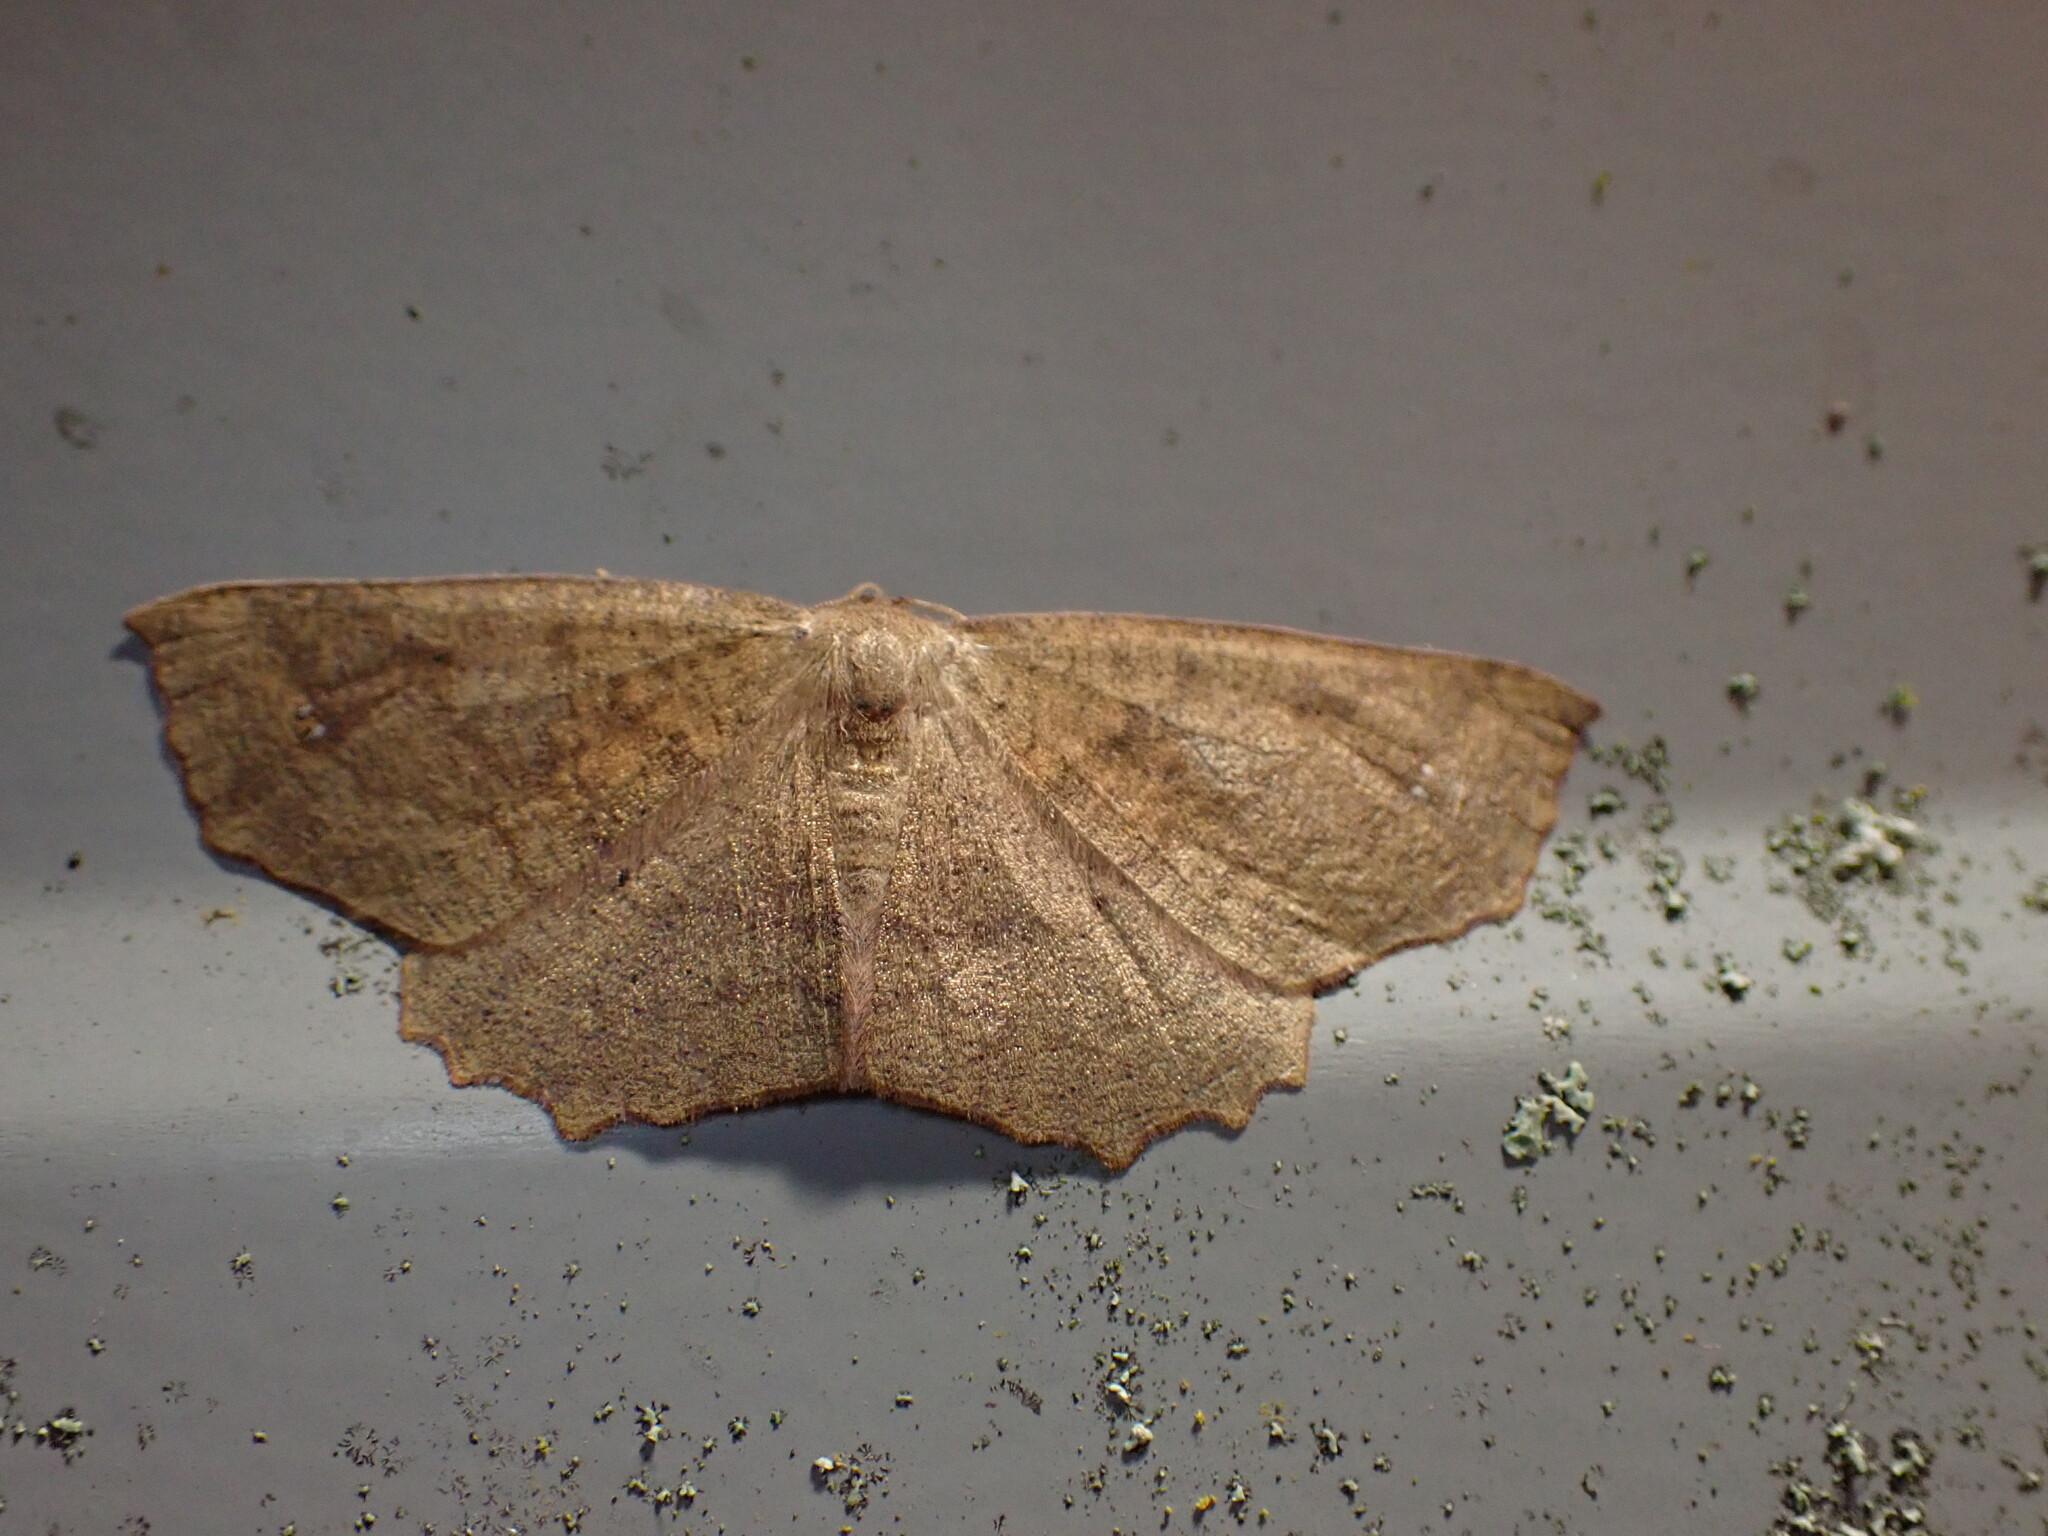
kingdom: Animalia
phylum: Arthropoda
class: Insecta
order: Lepidoptera
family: Geometridae
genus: Xyridacma
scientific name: Xyridacma ustaria
